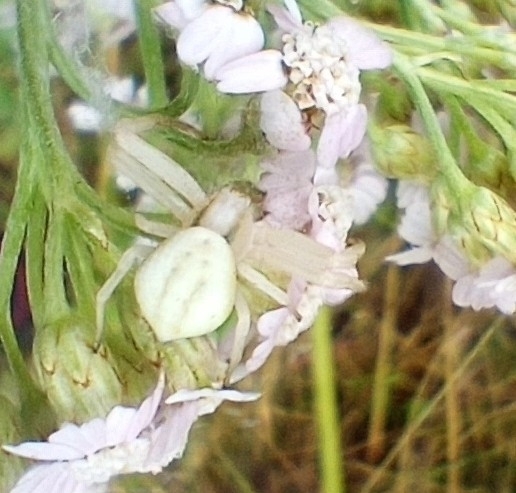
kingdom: Animalia
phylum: Arthropoda
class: Arachnida
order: Araneae
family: Thomisidae
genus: Misumena
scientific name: Misumena vatia
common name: Goldenrod crab spider
